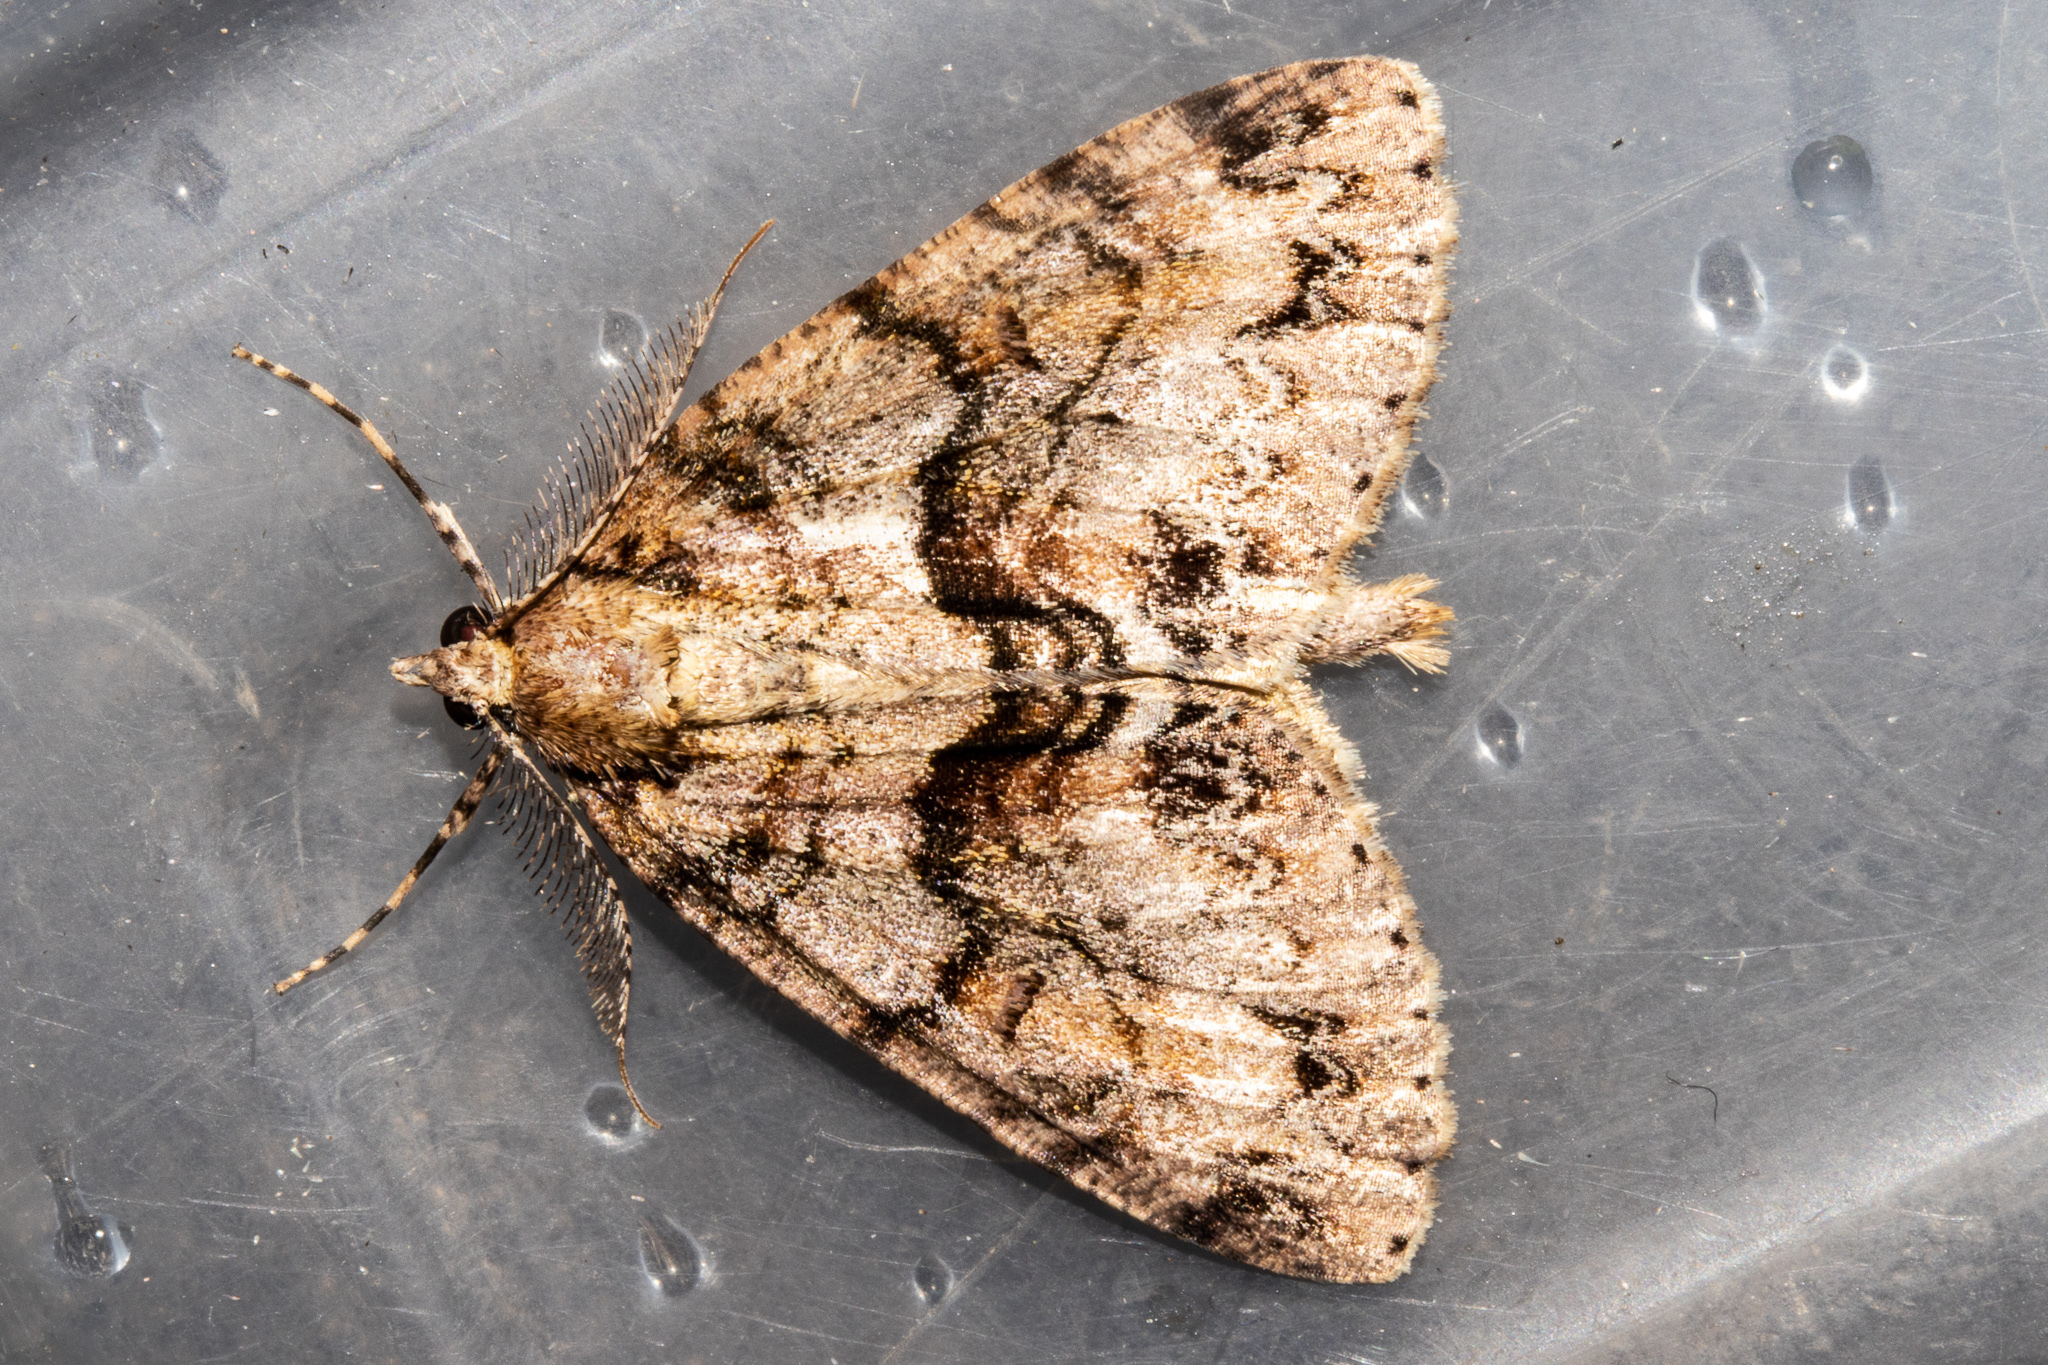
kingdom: Animalia
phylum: Arthropoda
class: Insecta
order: Lepidoptera
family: Geometridae
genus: Pseudocoremia
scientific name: Pseudocoremia suavis
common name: Common forest looper
